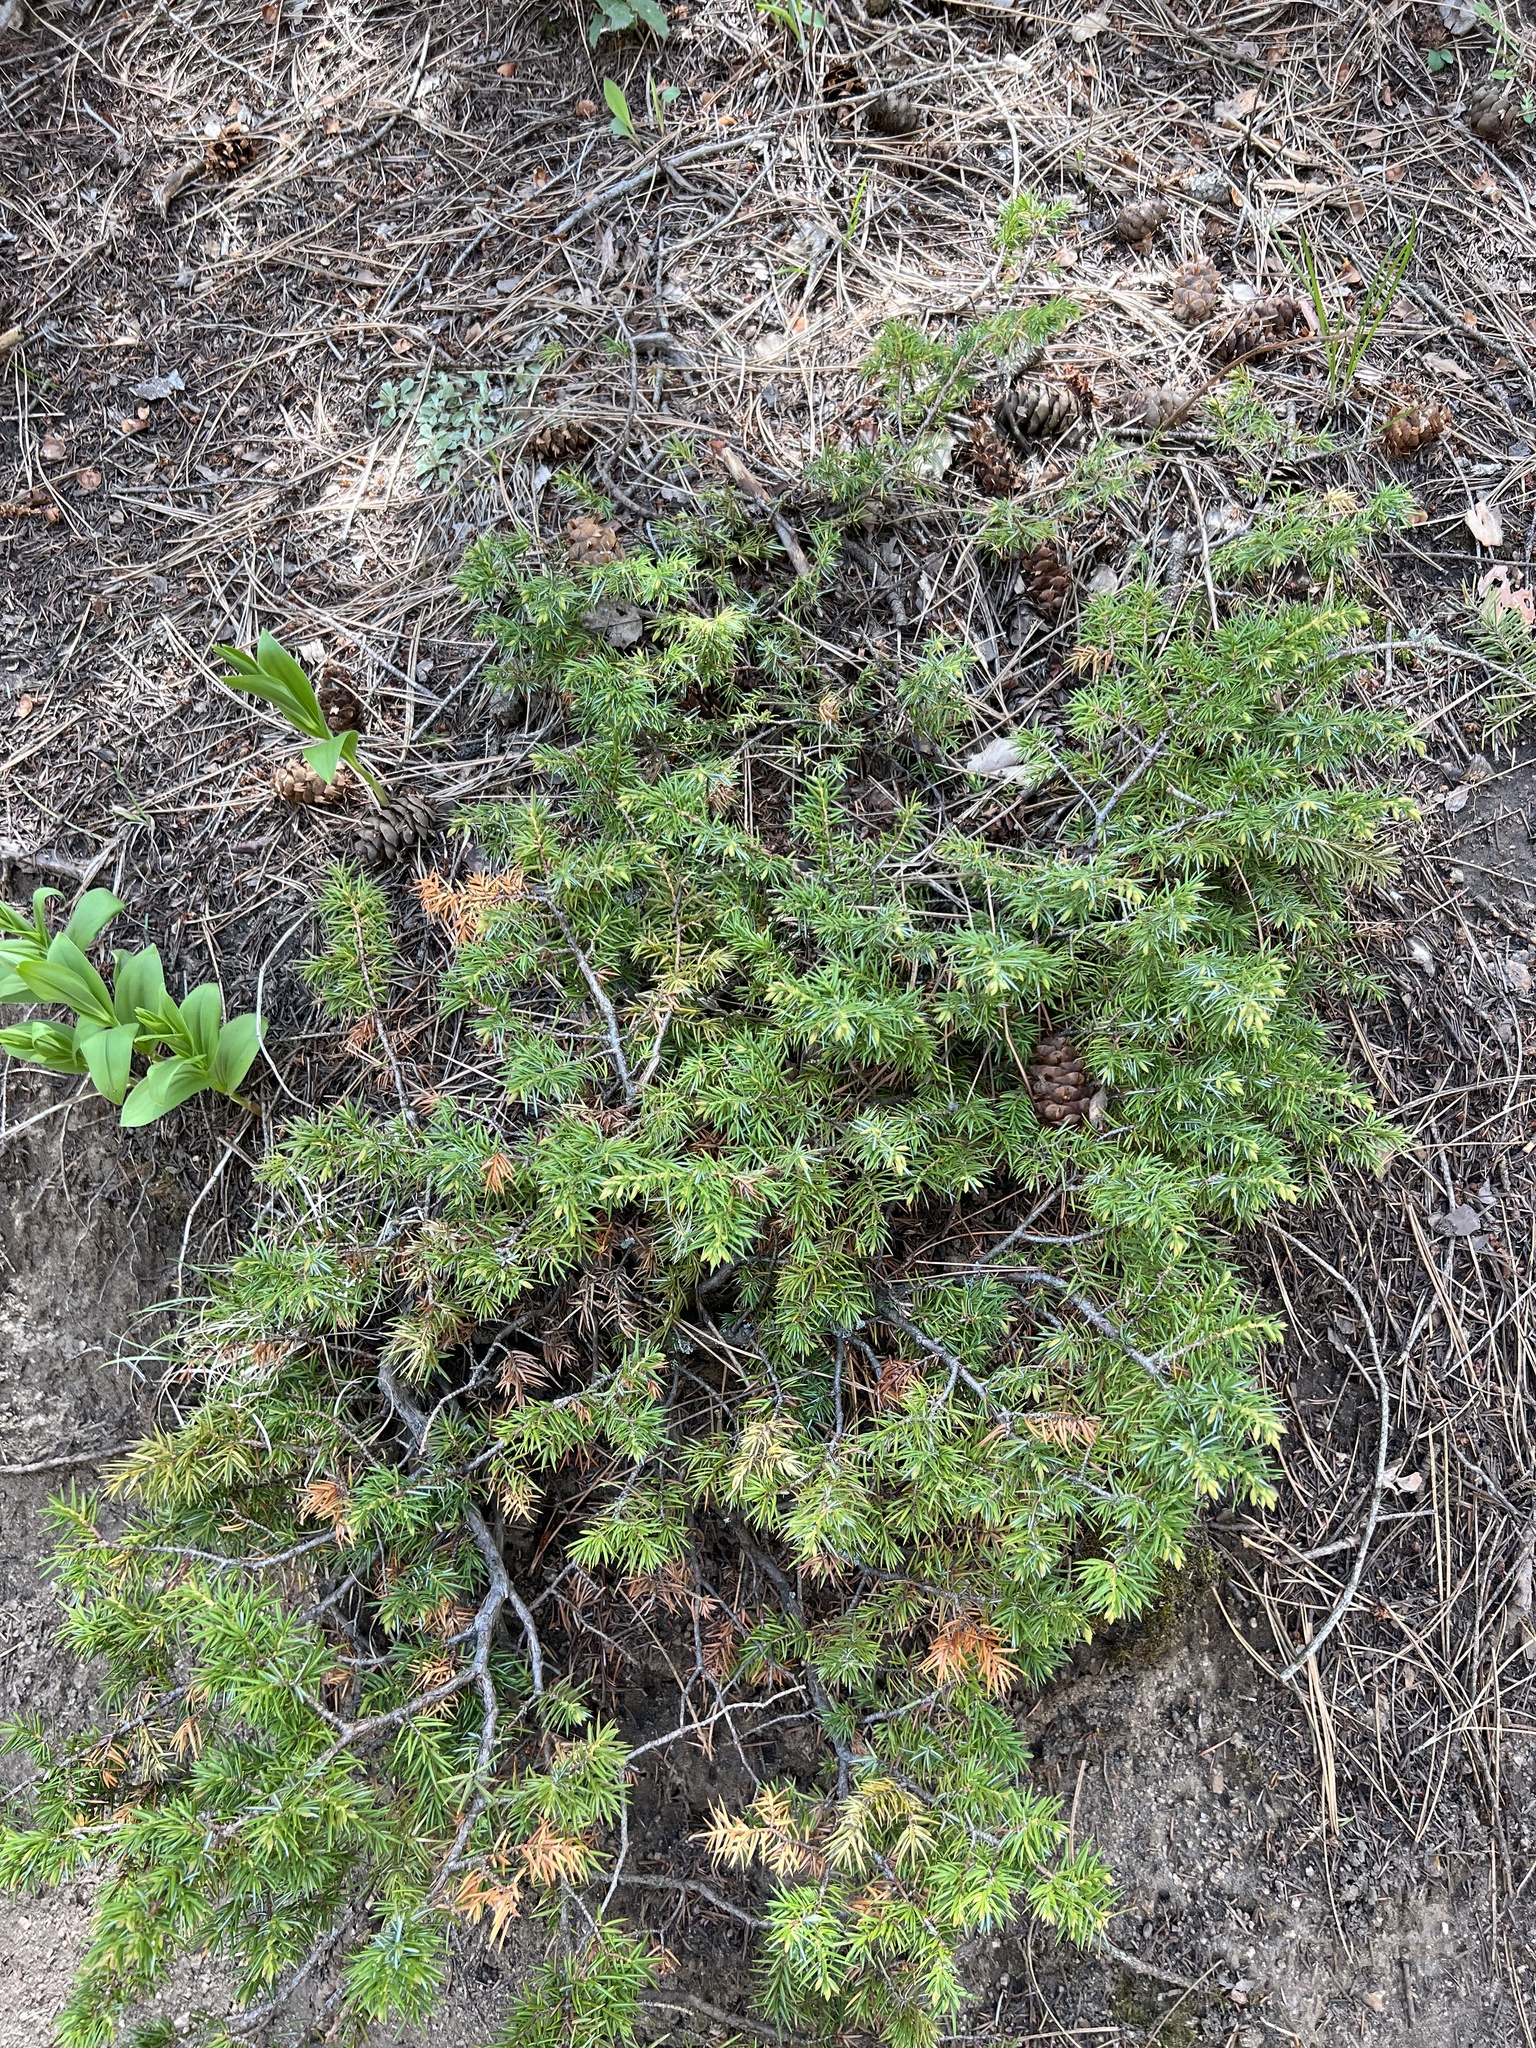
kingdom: Plantae
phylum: Tracheophyta
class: Pinopsida
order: Pinales
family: Cupressaceae
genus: Juniperus
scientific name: Juniperus communis
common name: Common juniper
